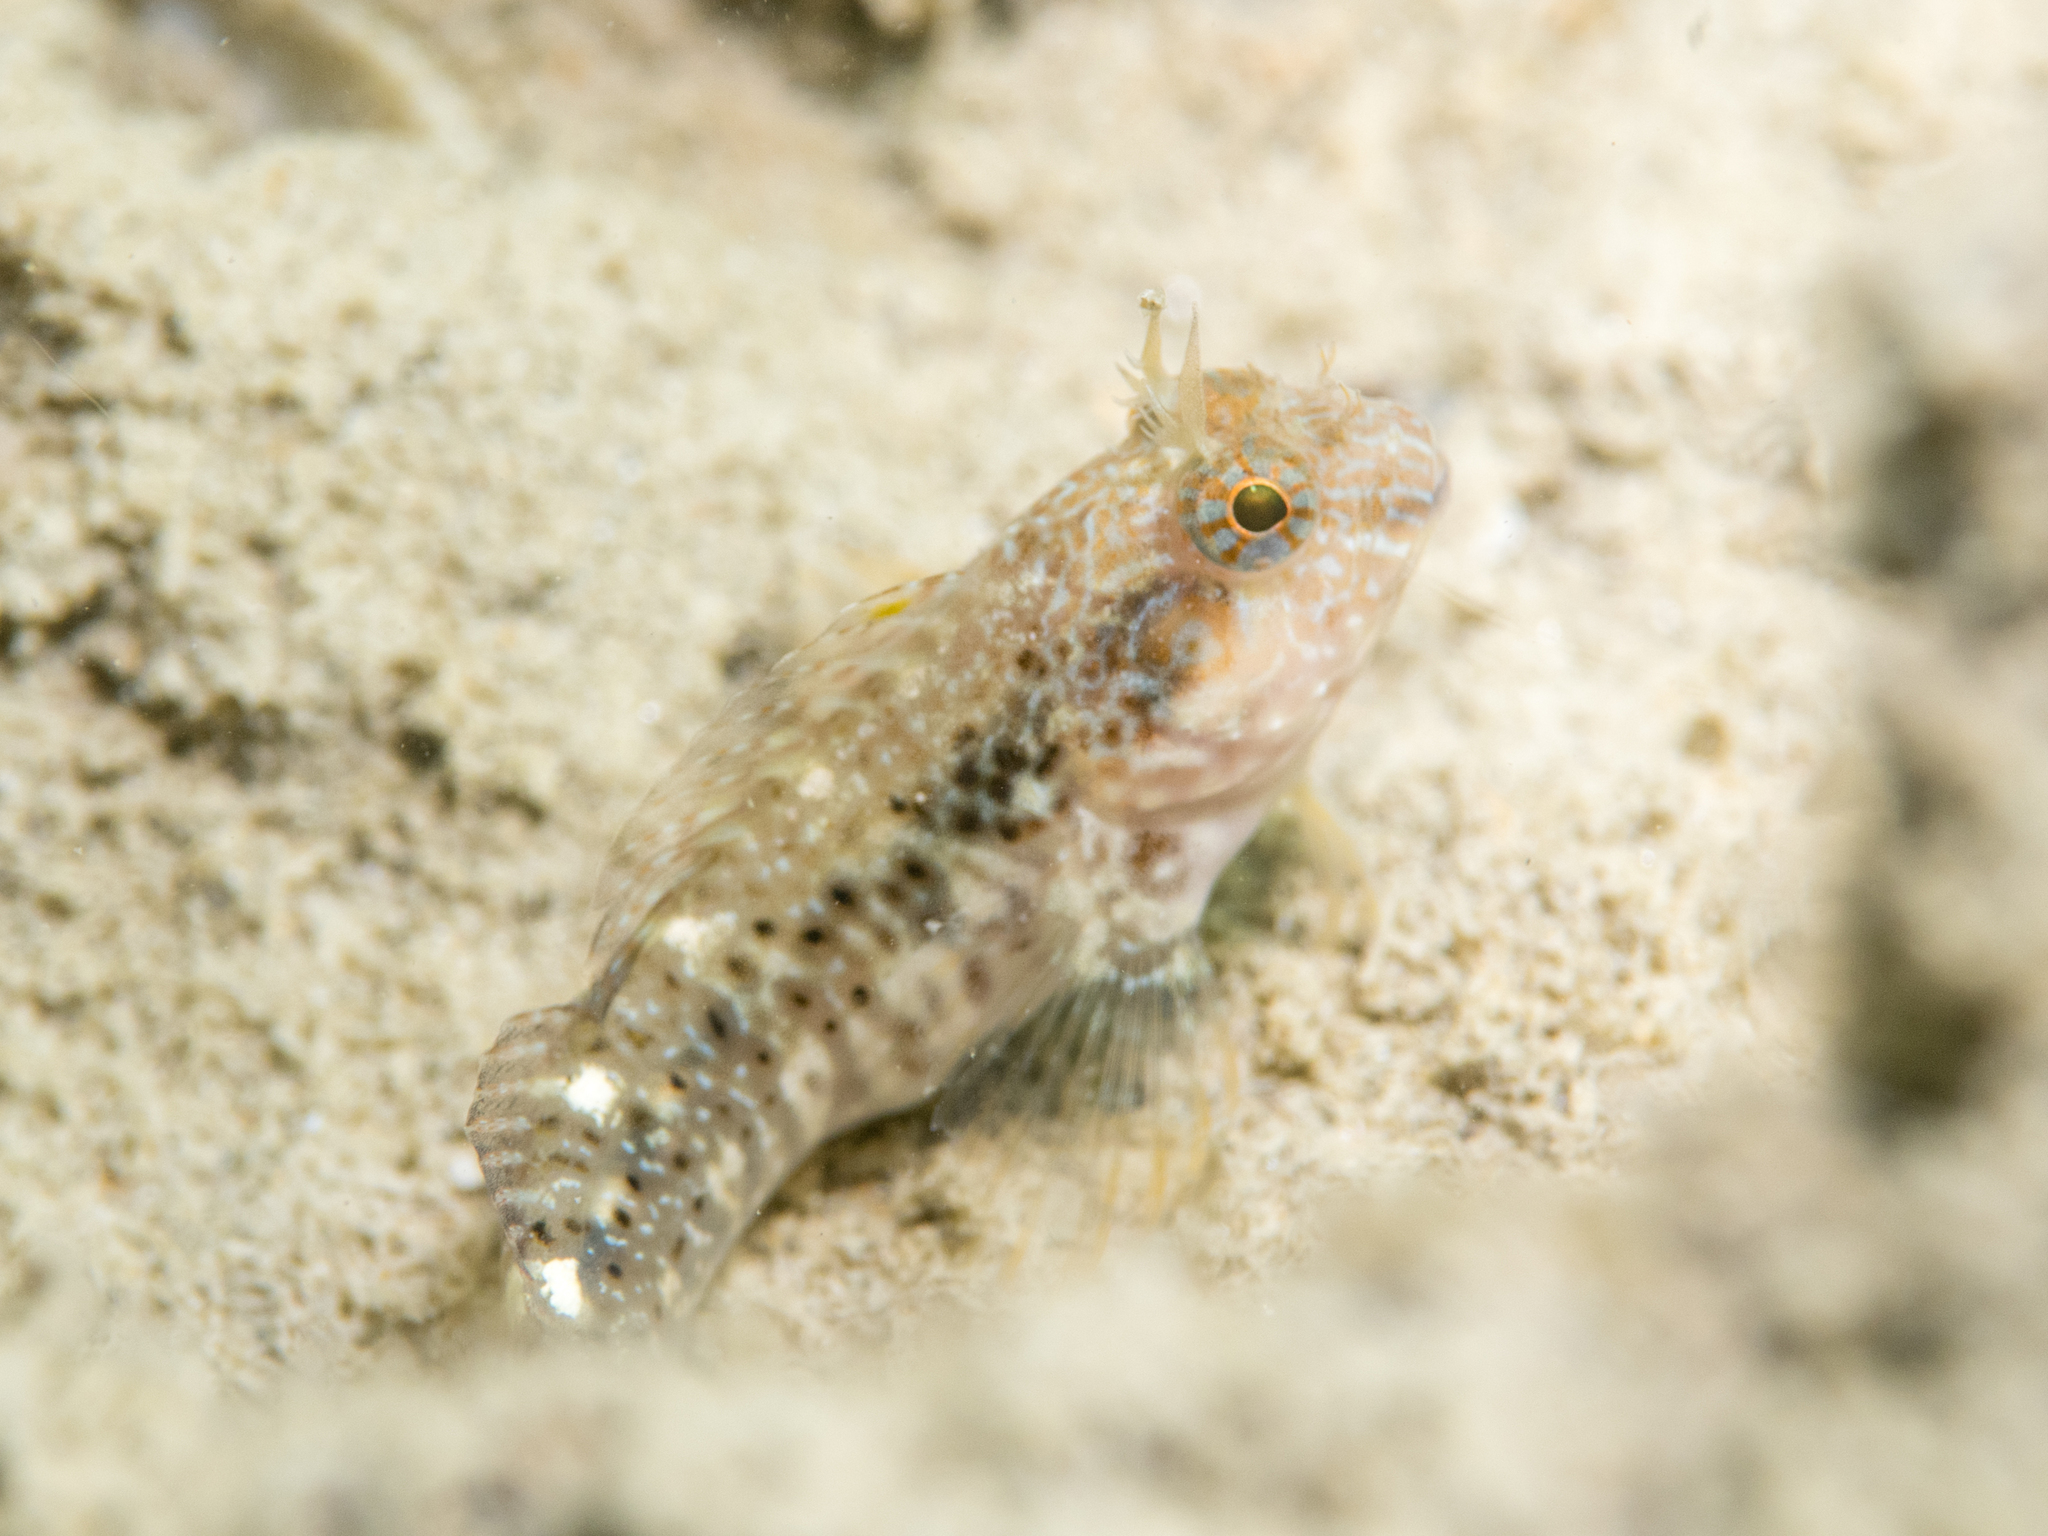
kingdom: Animalia
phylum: Chordata
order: Perciformes
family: Blenniidae
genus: Parablennius
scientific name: Parablennius zvonimiri
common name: Red blenny
